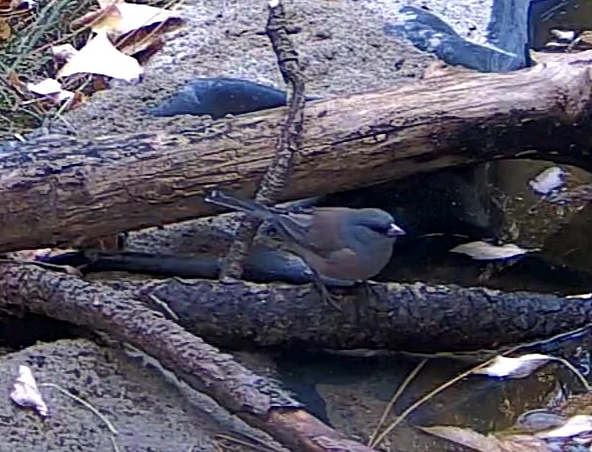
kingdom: Animalia
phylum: Chordata
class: Aves
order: Passeriformes
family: Passerellidae
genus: Junco
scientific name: Junco hyemalis
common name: Dark-eyed junco
